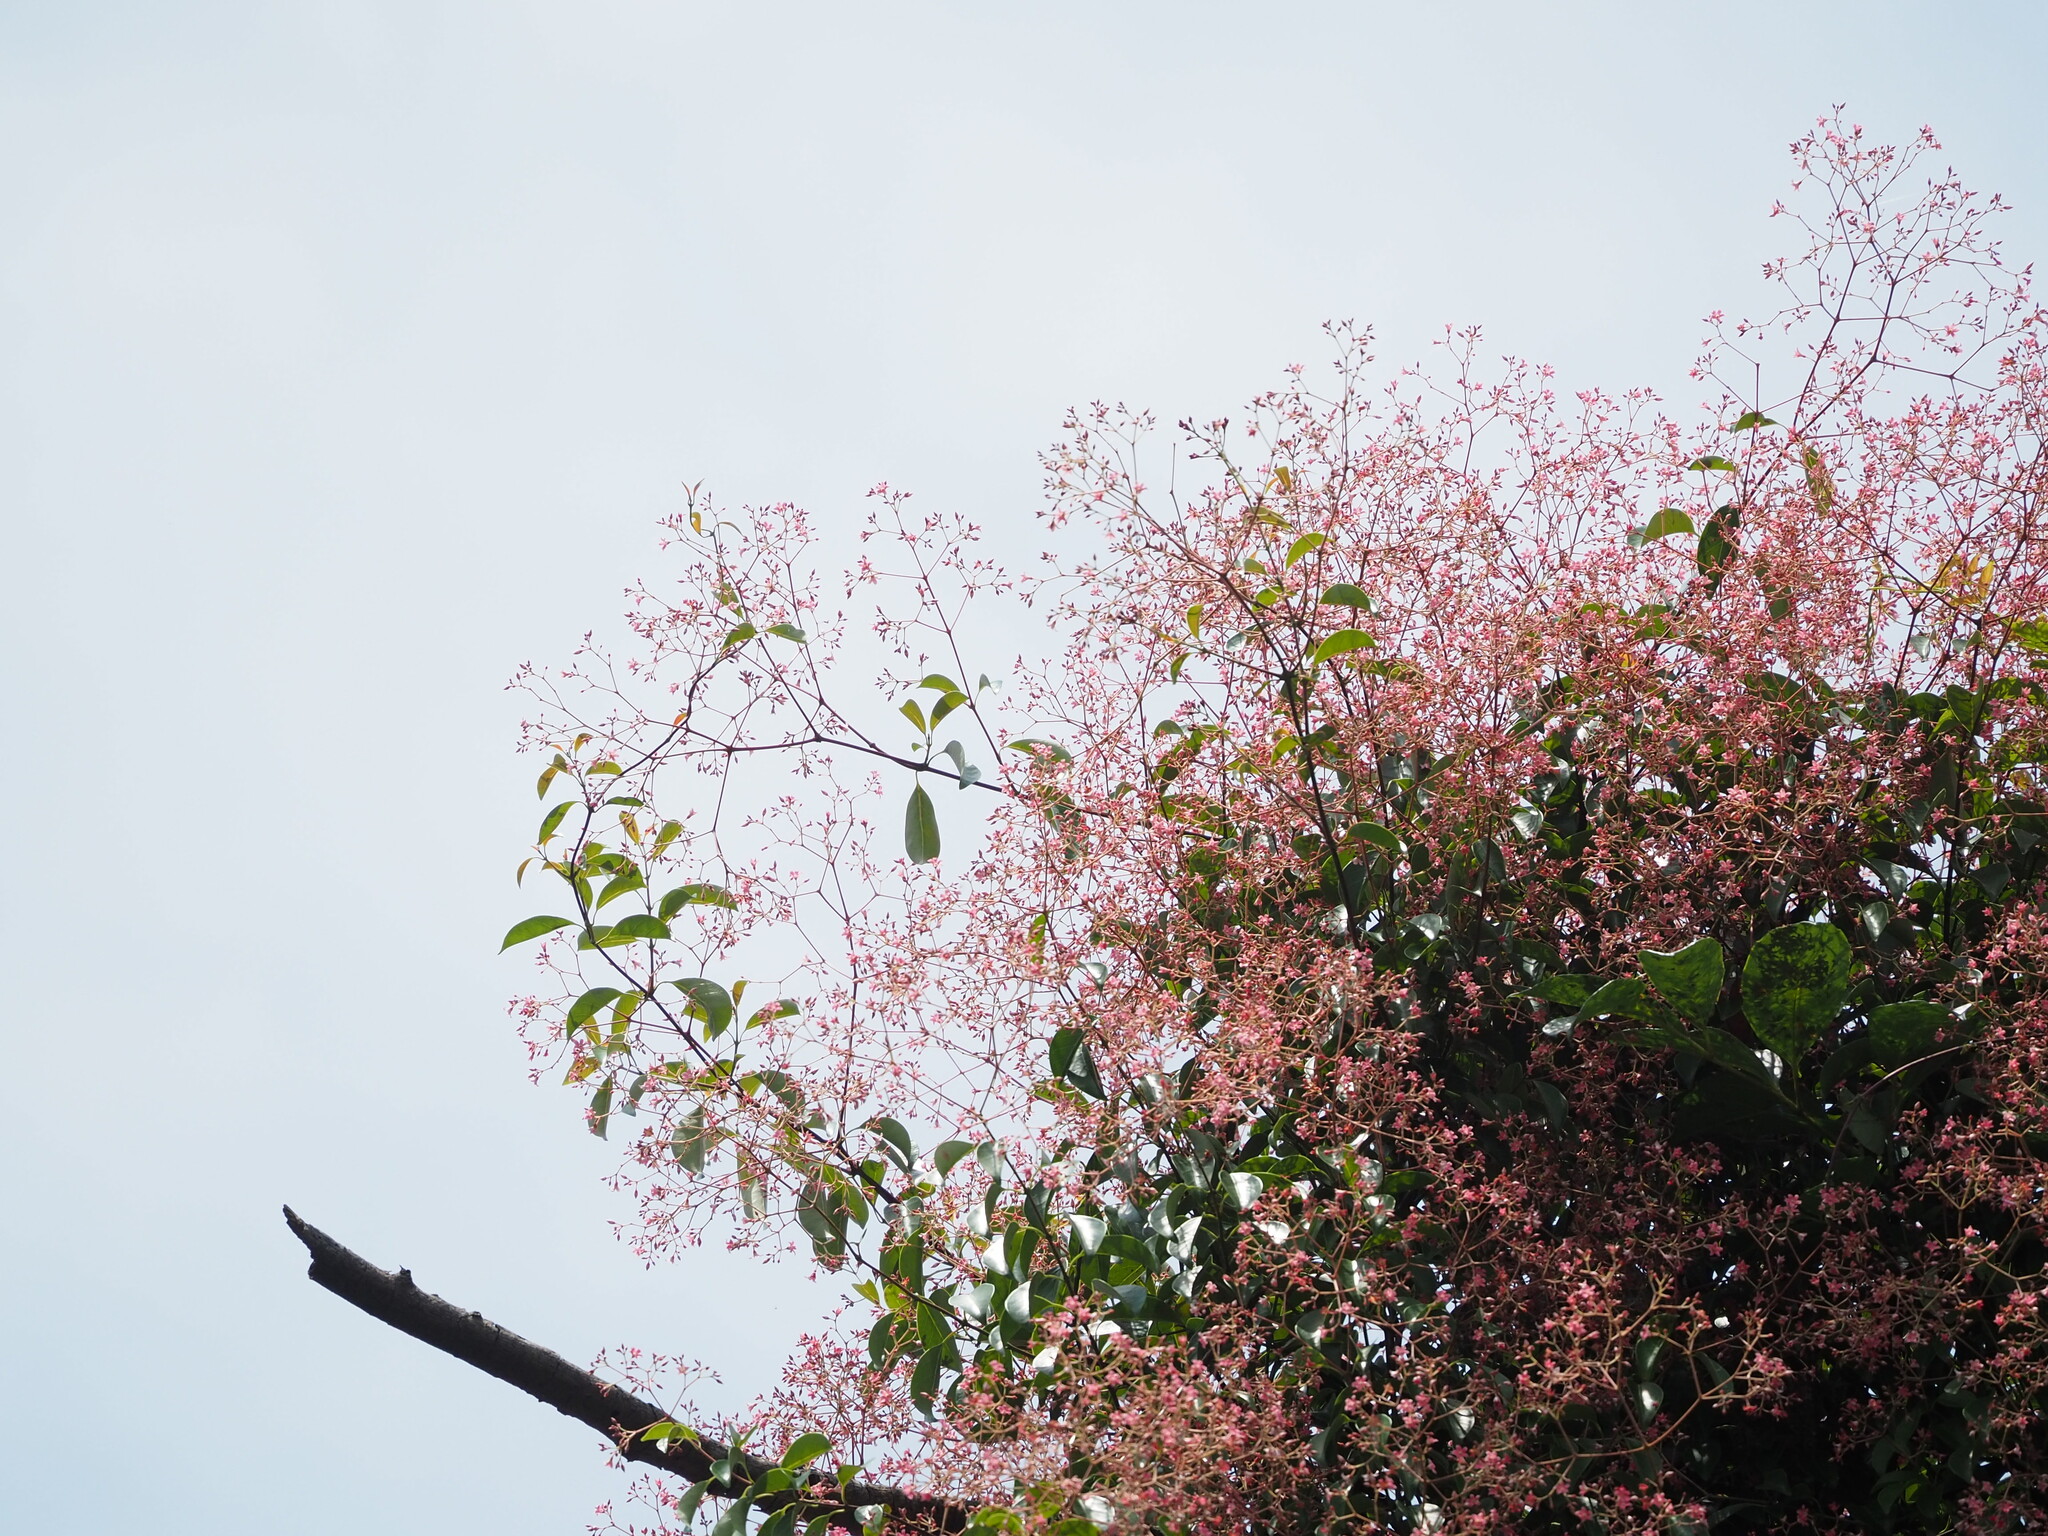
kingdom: Plantae
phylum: Tracheophyta
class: Magnoliopsida
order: Gentianales
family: Apocynaceae
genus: Urceola
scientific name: Urceola rosea
